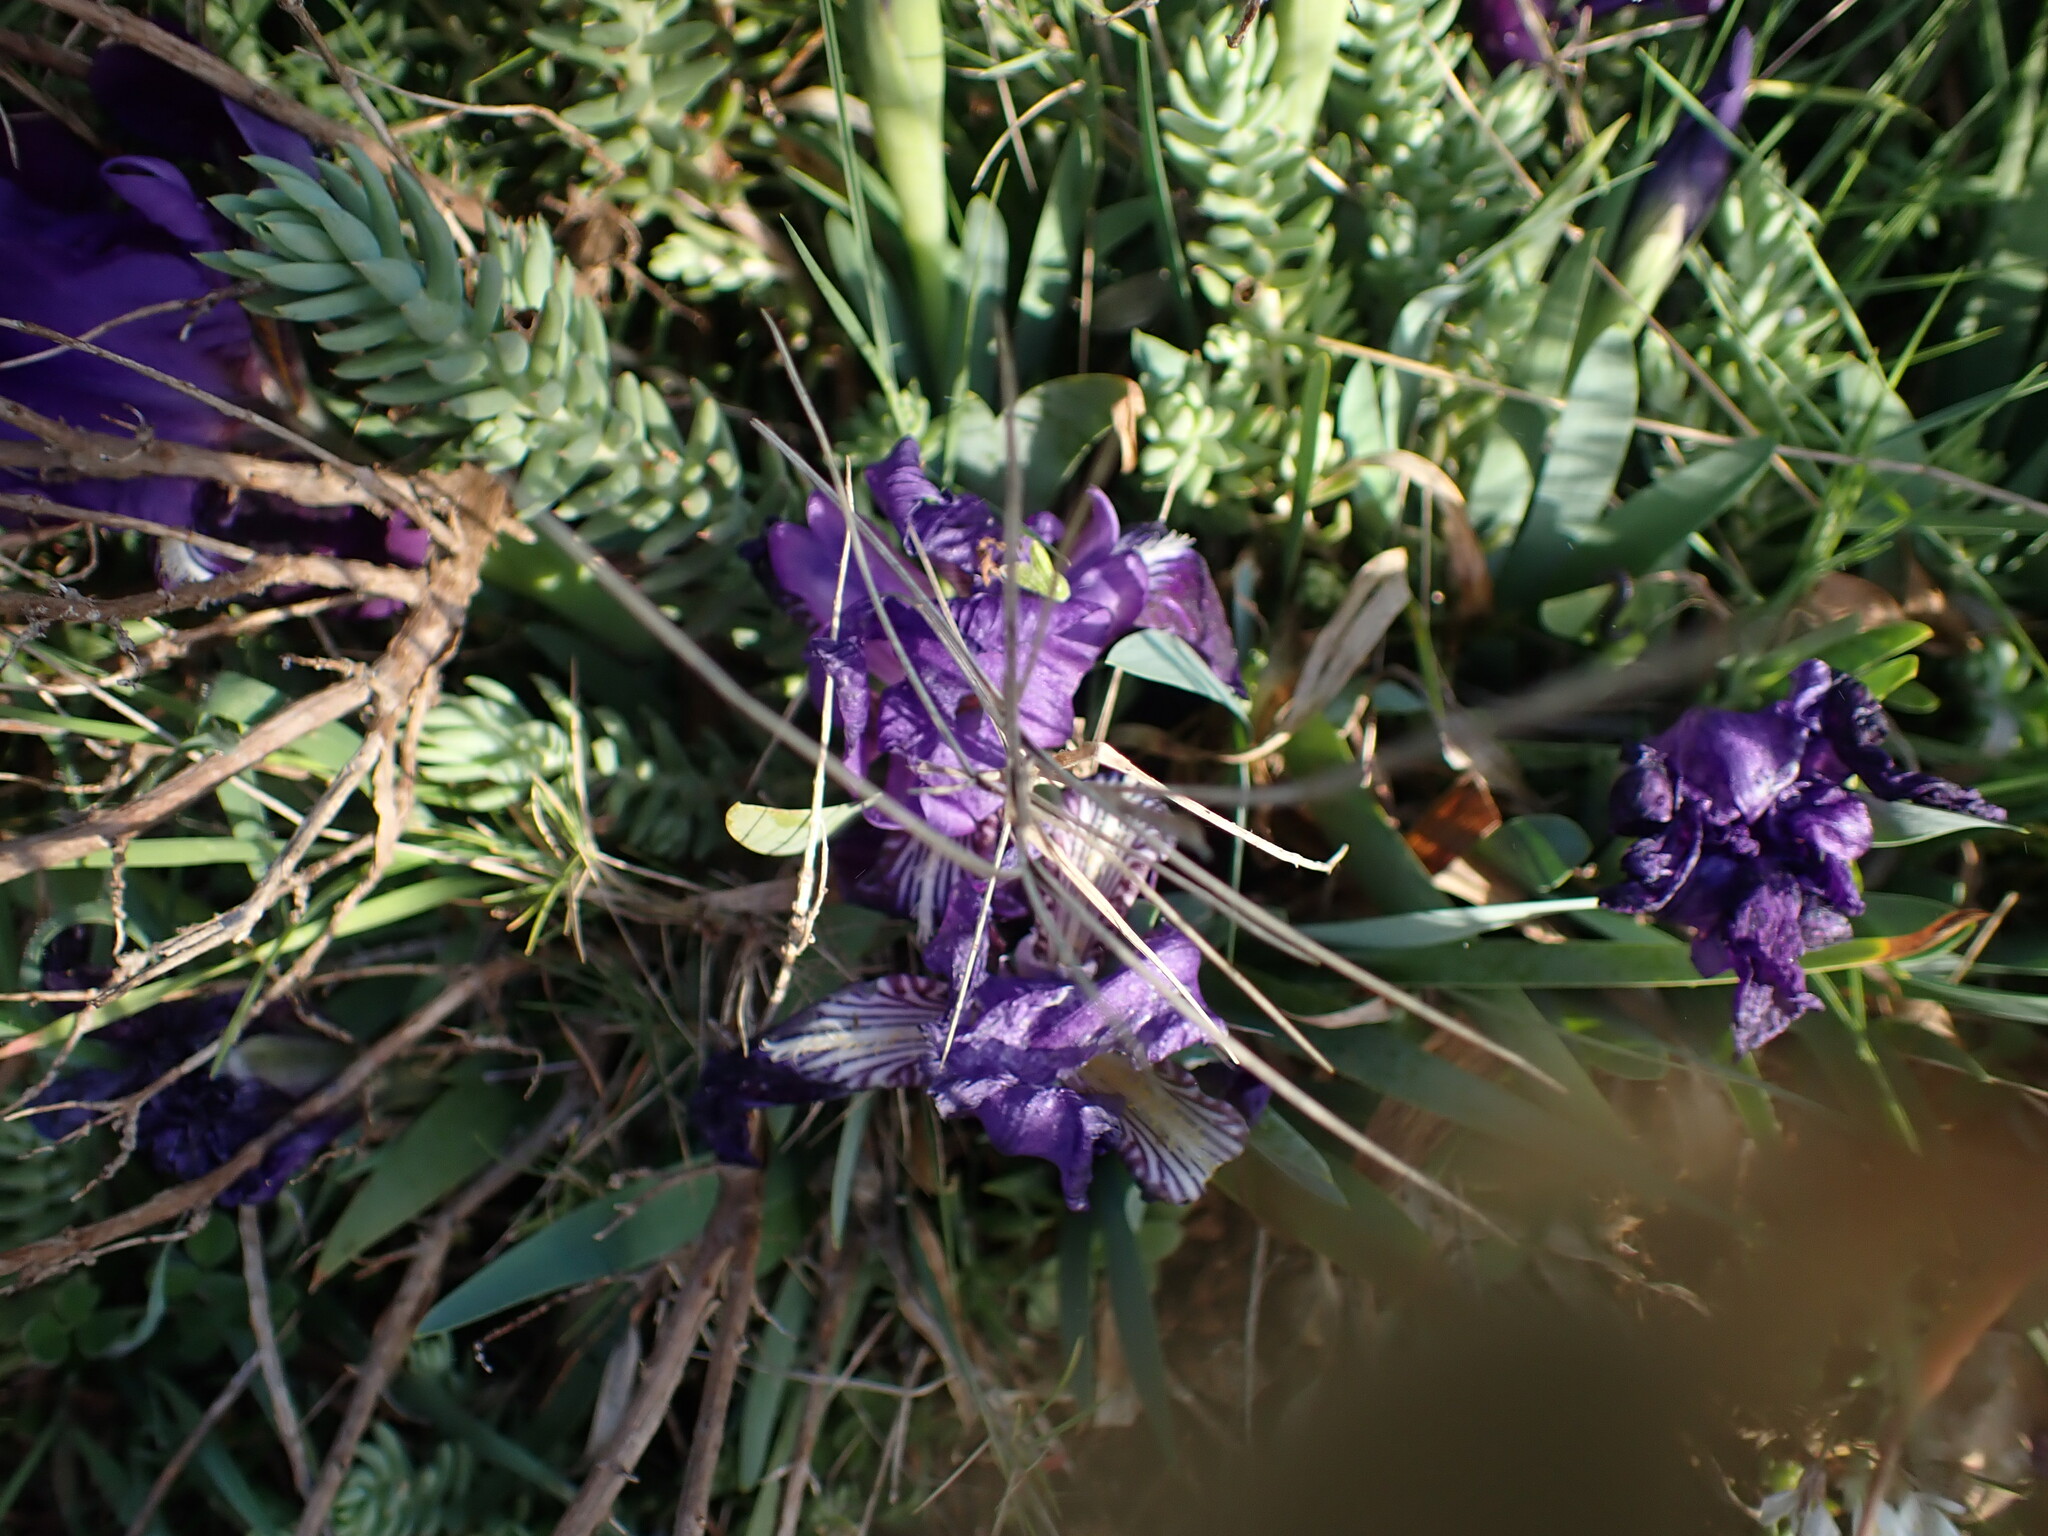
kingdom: Plantae
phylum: Tracheophyta
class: Liliopsida
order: Asparagales
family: Iridaceae
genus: Iris
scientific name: Iris lutescens
